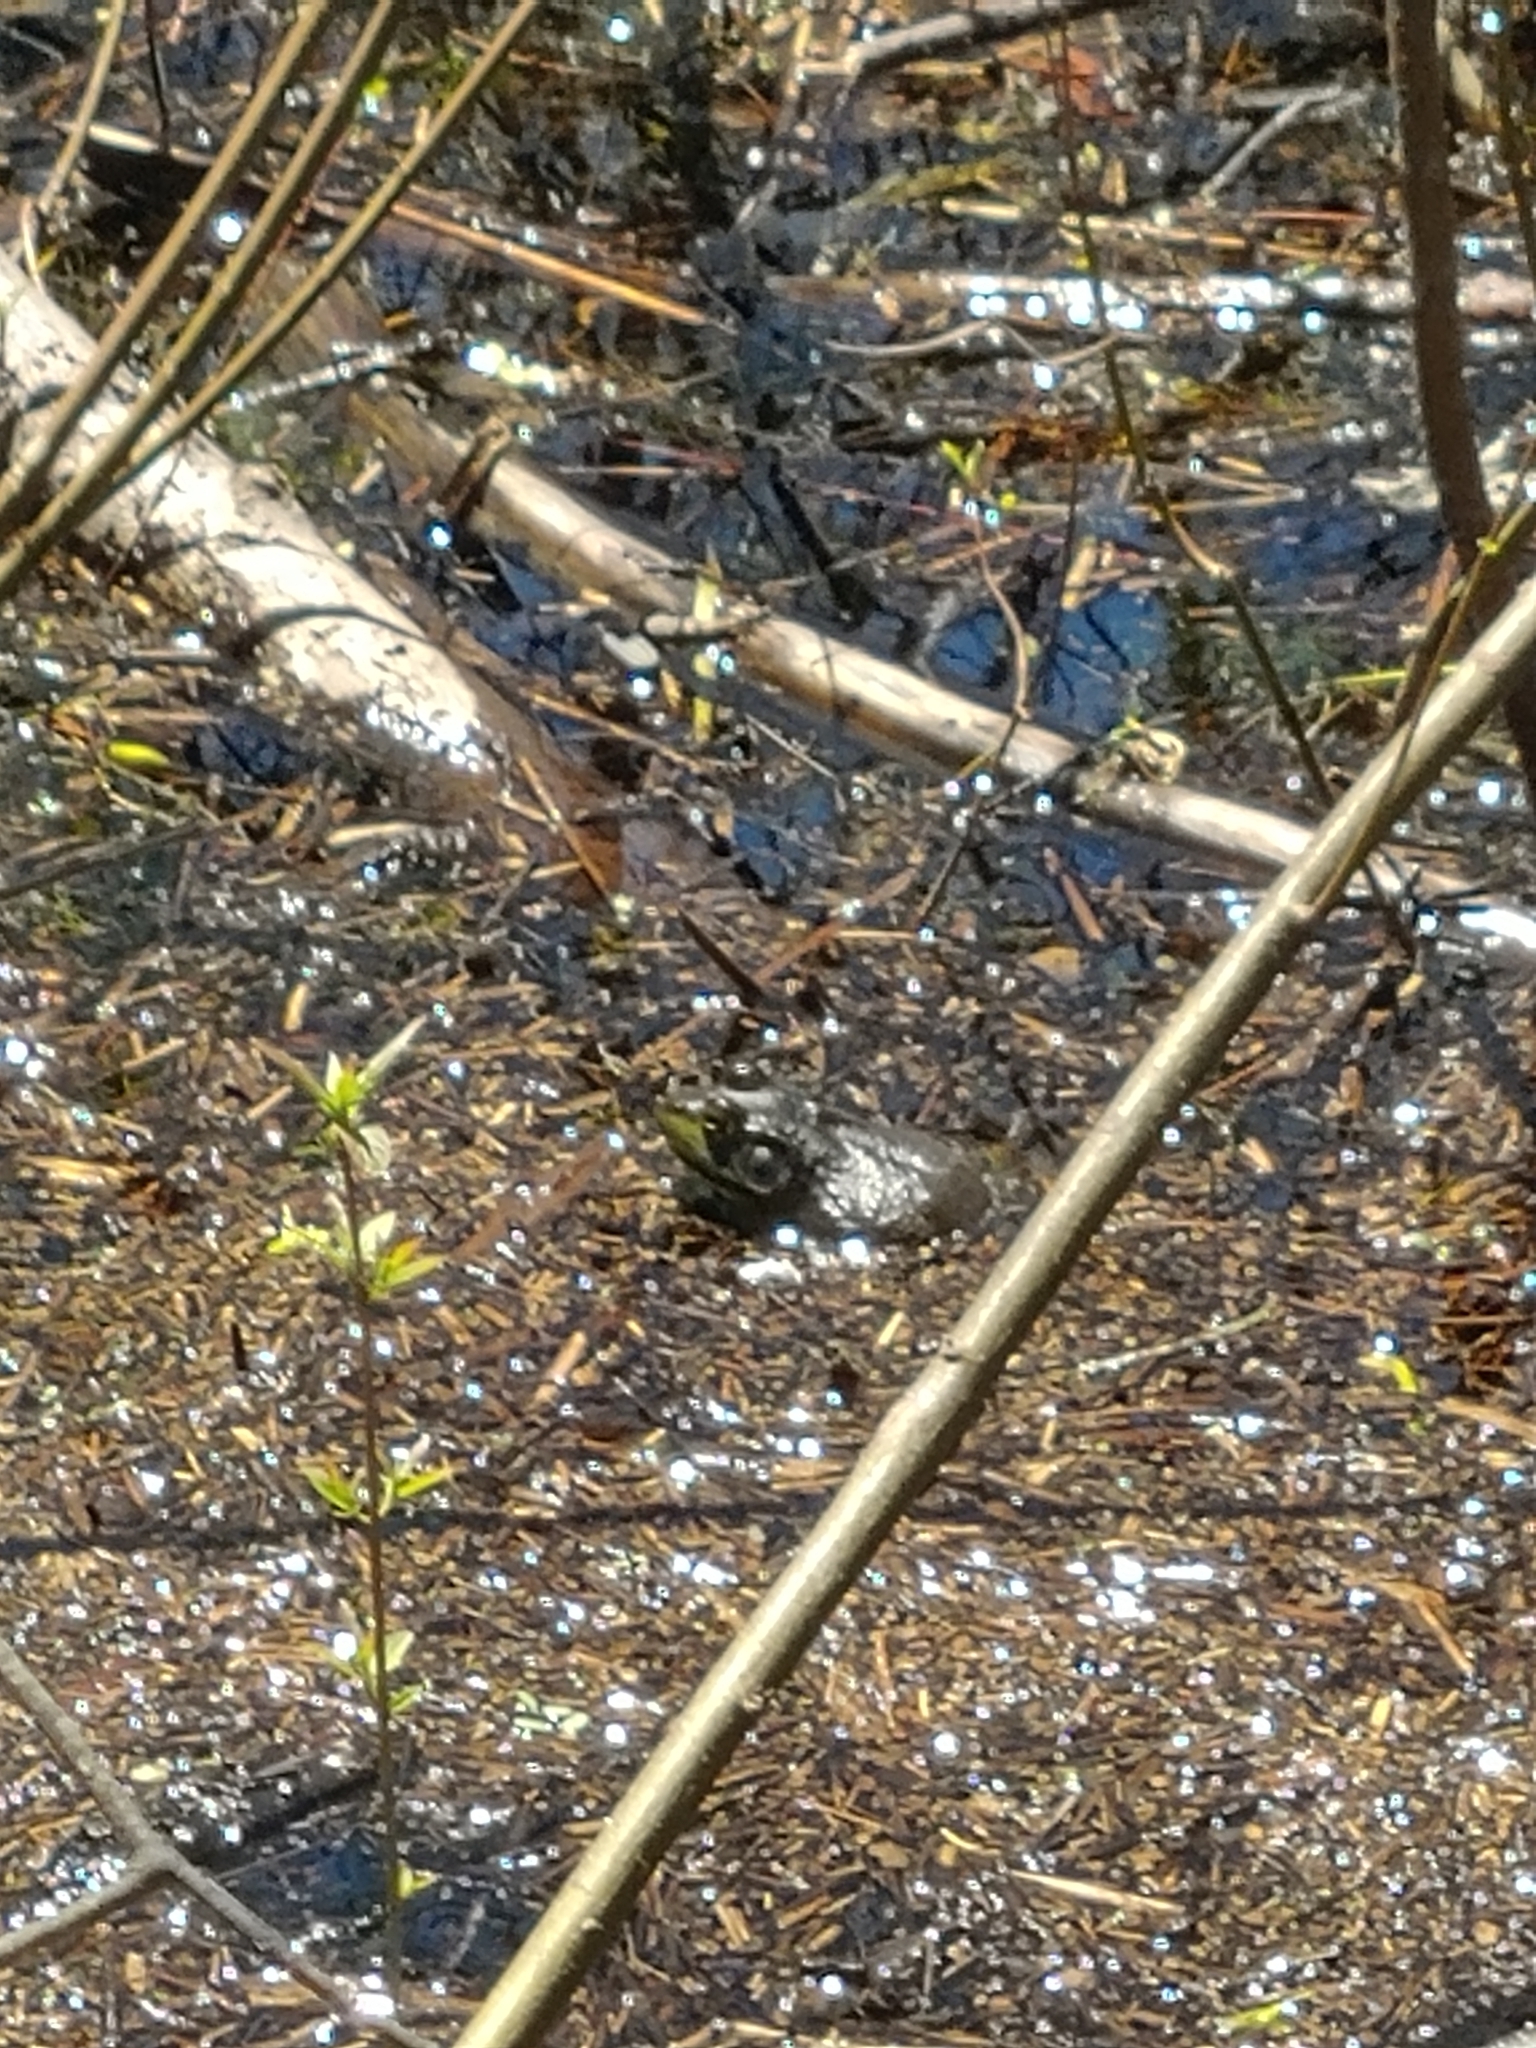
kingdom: Animalia
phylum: Chordata
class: Amphibia
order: Anura
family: Ranidae
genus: Lithobates
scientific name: Lithobates catesbeianus
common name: American bullfrog
